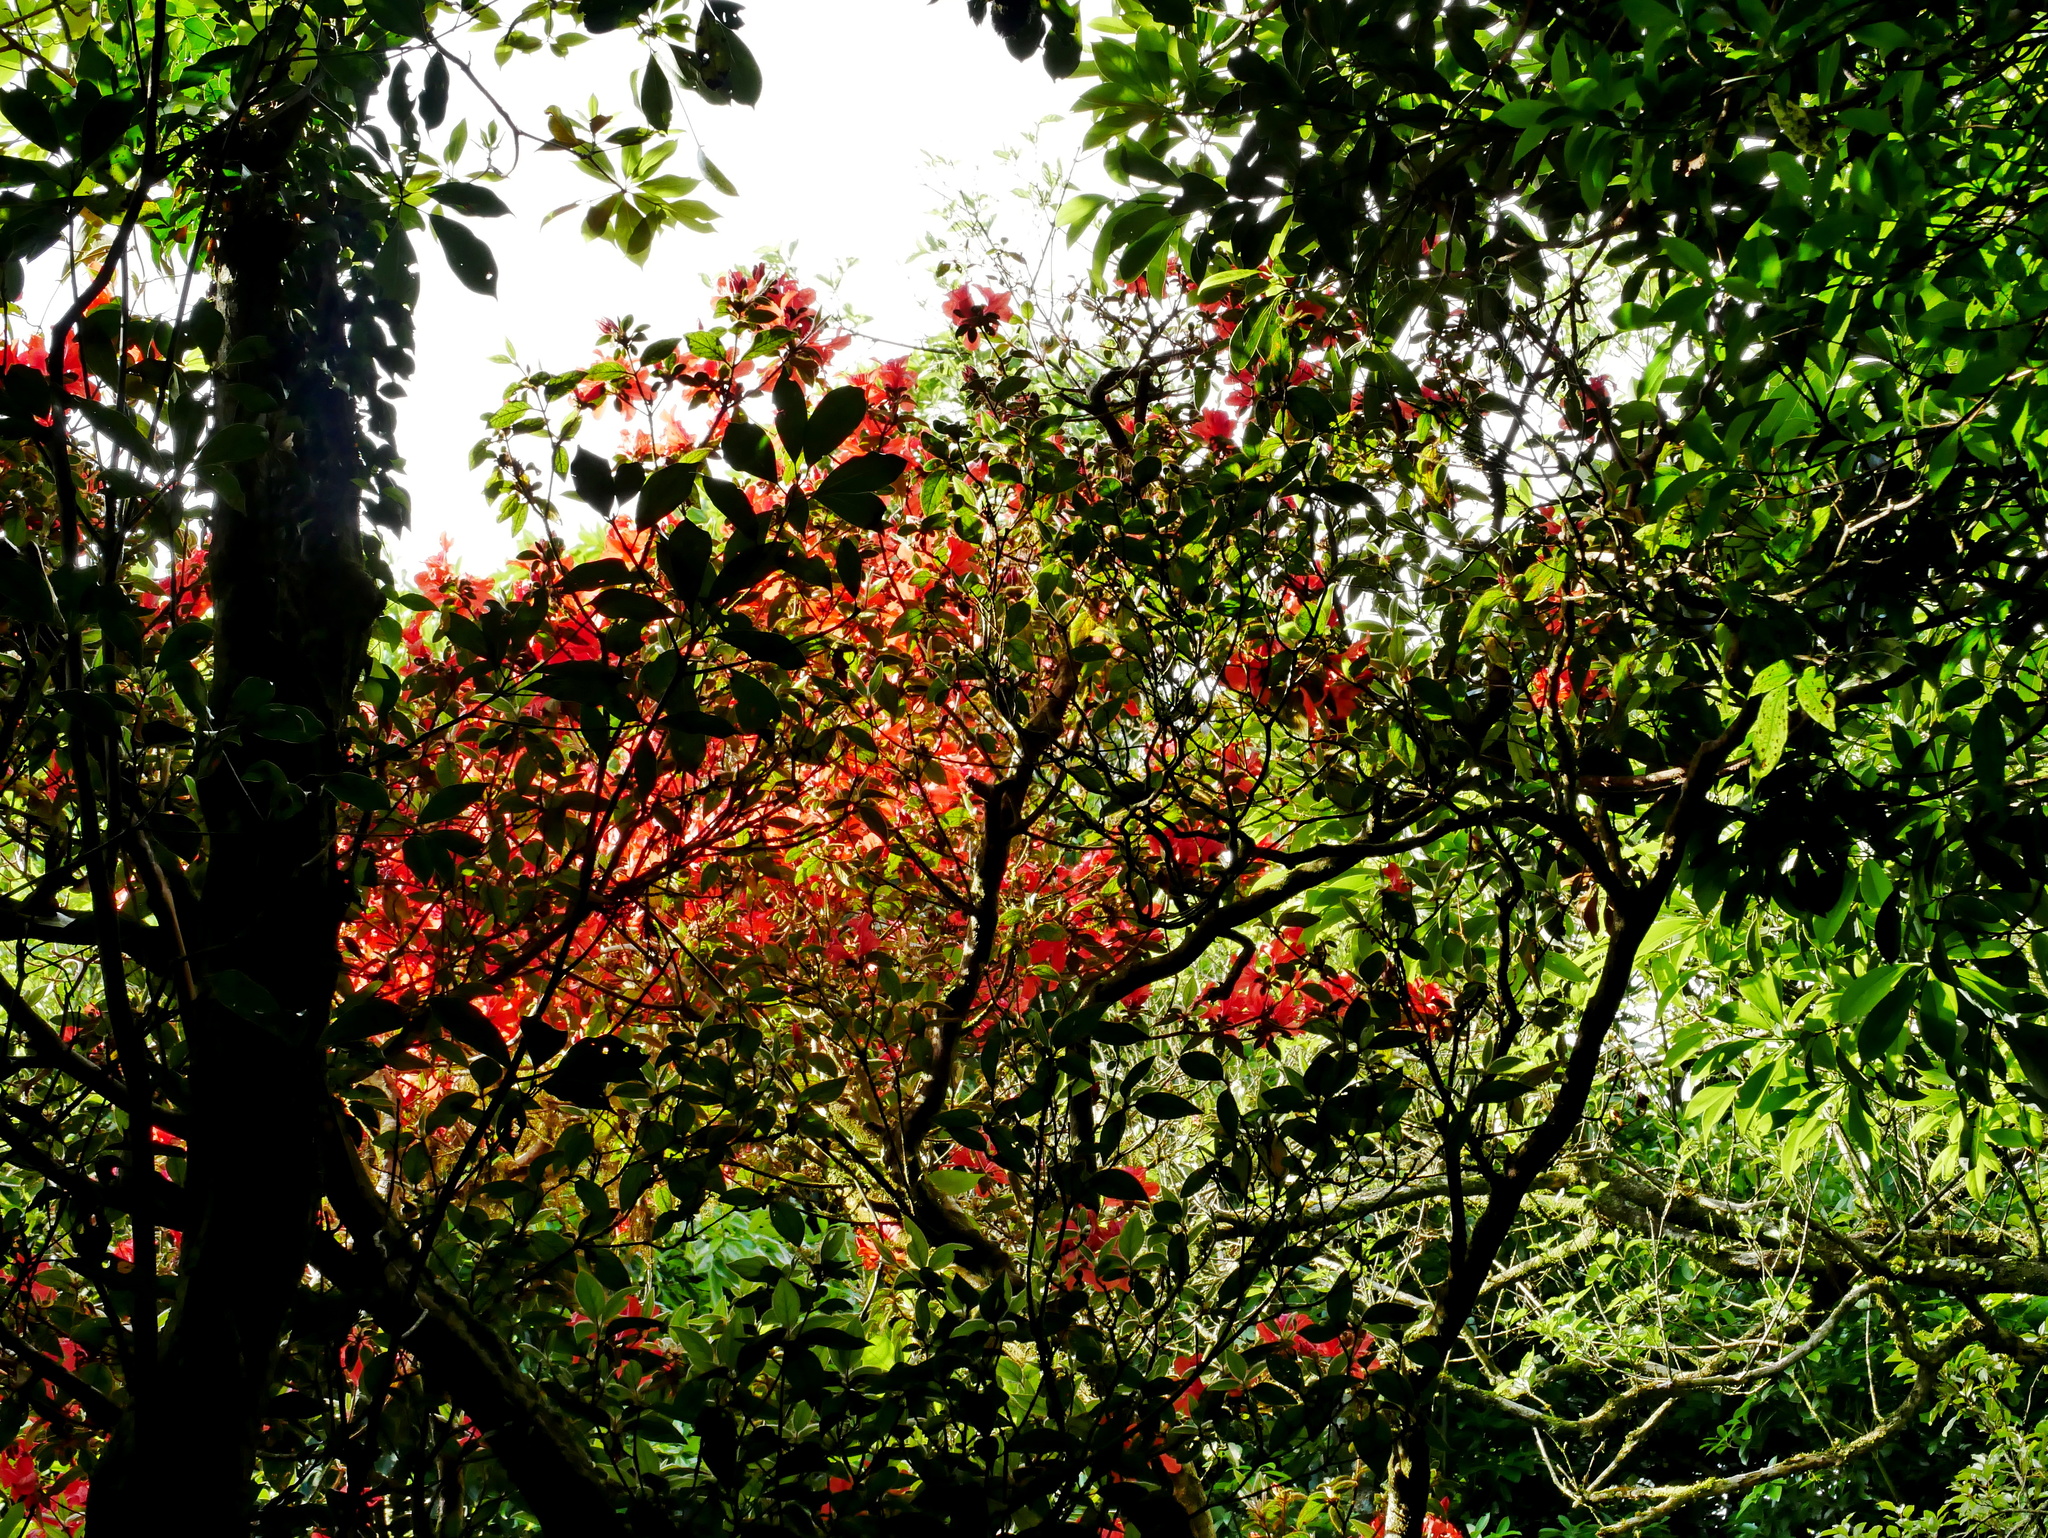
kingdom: Plantae
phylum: Tracheophyta
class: Magnoliopsida
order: Ericales
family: Ericaceae
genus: Rhododendron
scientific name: Rhododendron oldhamii
